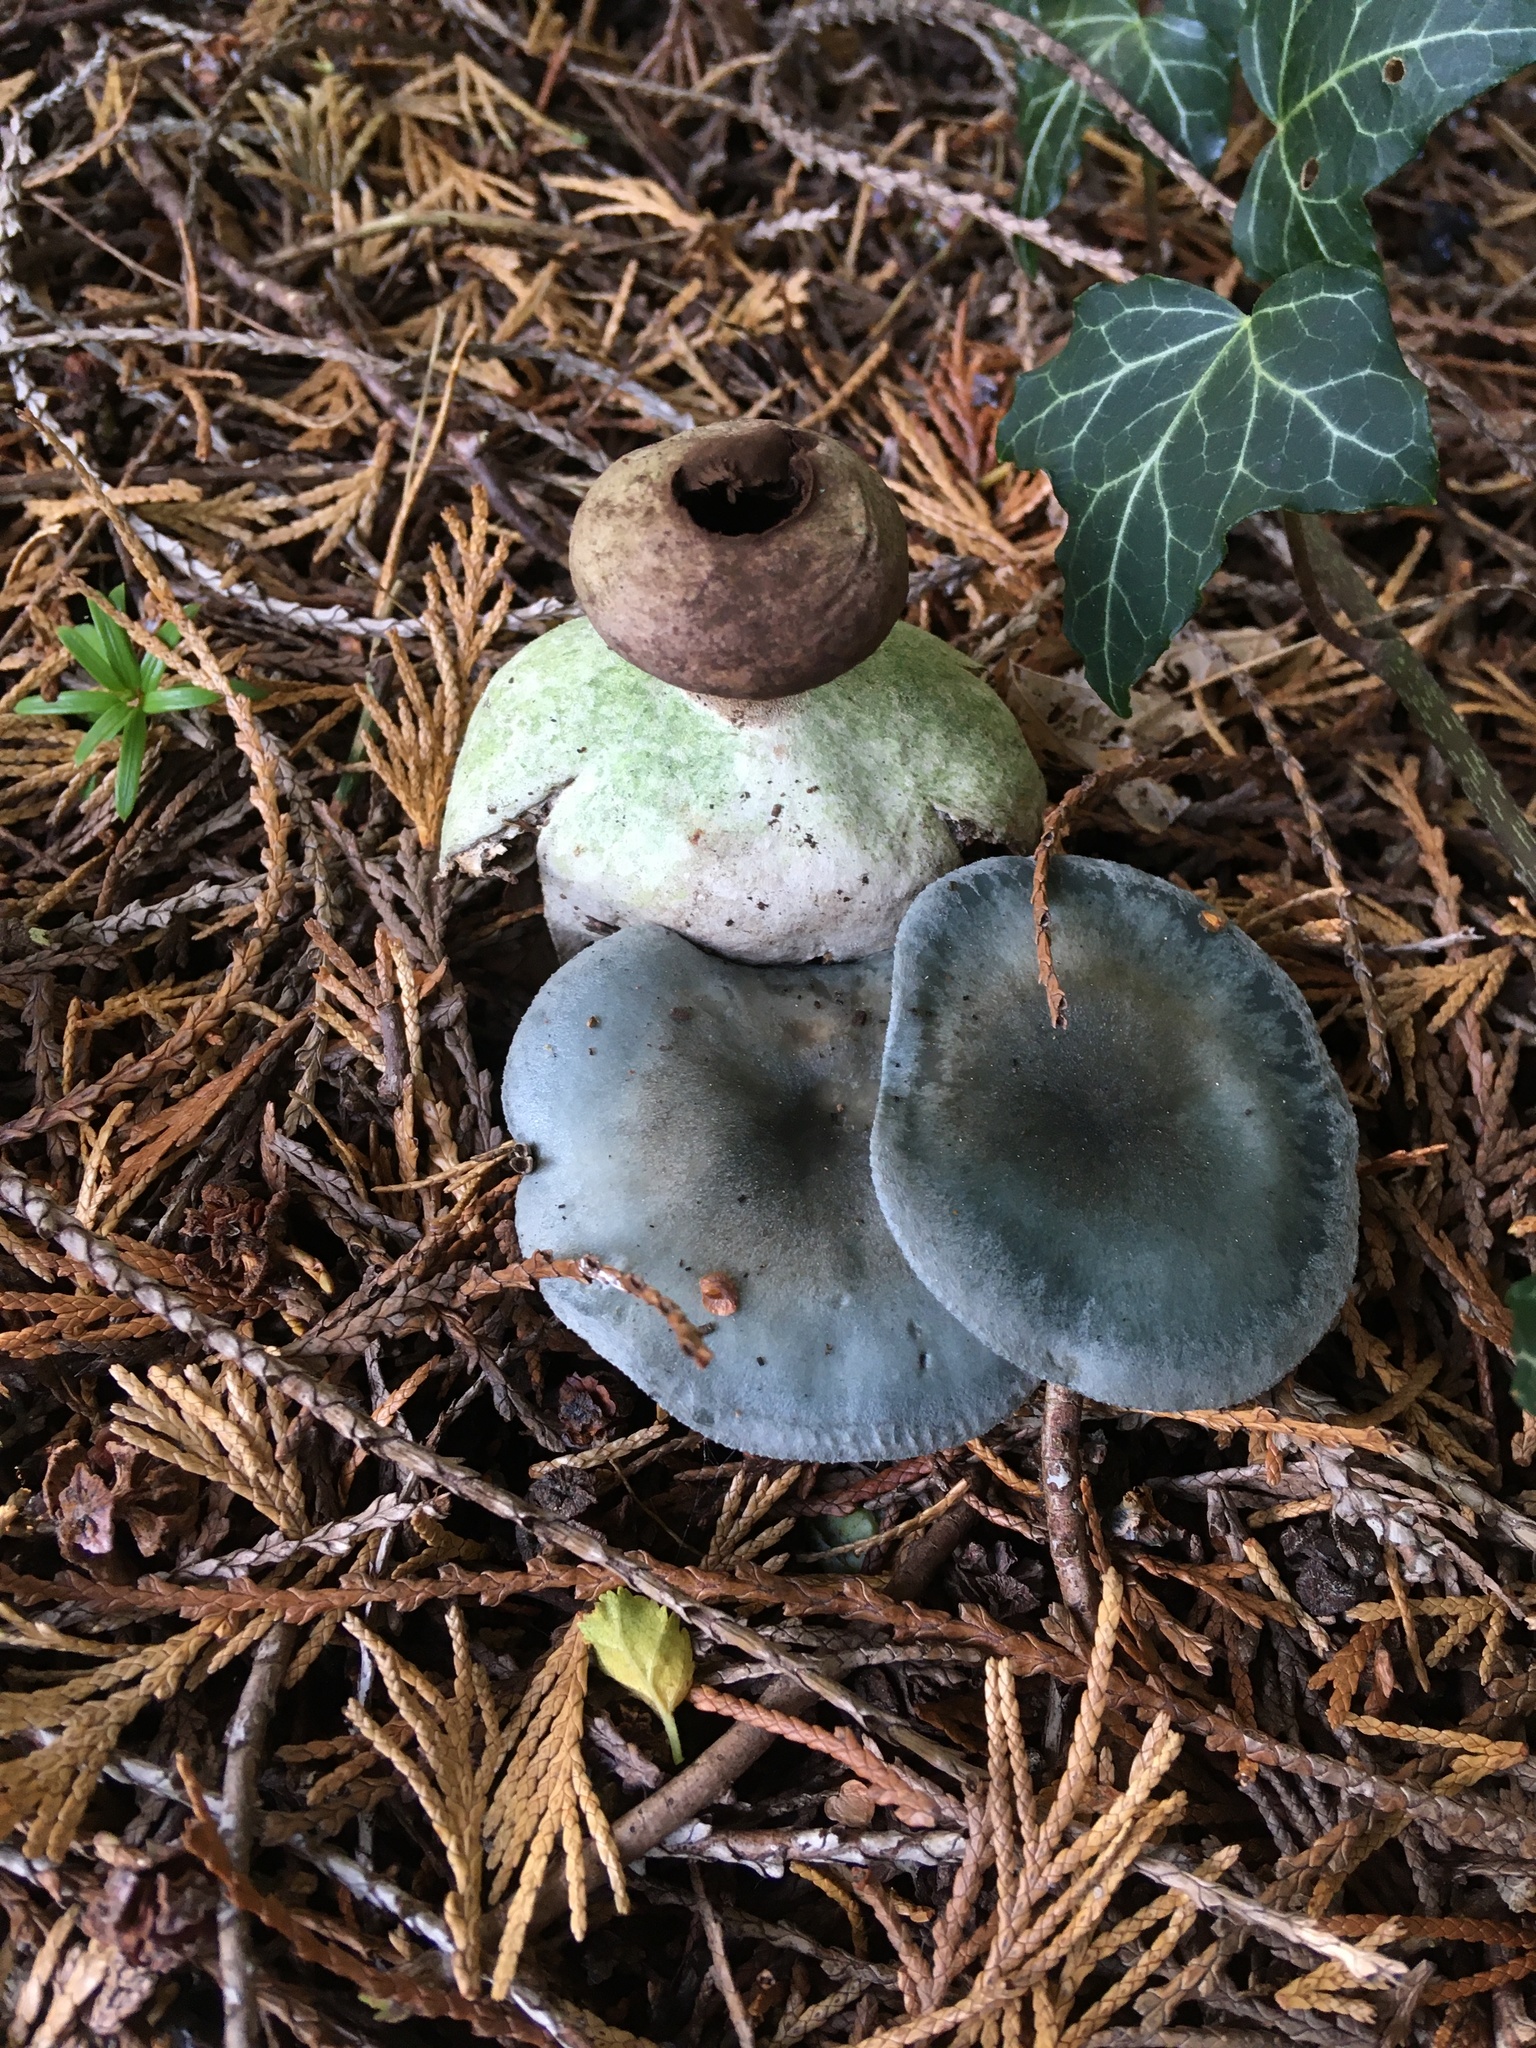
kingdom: Fungi
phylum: Basidiomycota
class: Agaricomycetes
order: Geastrales
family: Geastraceae
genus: Geastrum
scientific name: Geastrum pectinatum
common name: Beaked earthstar
